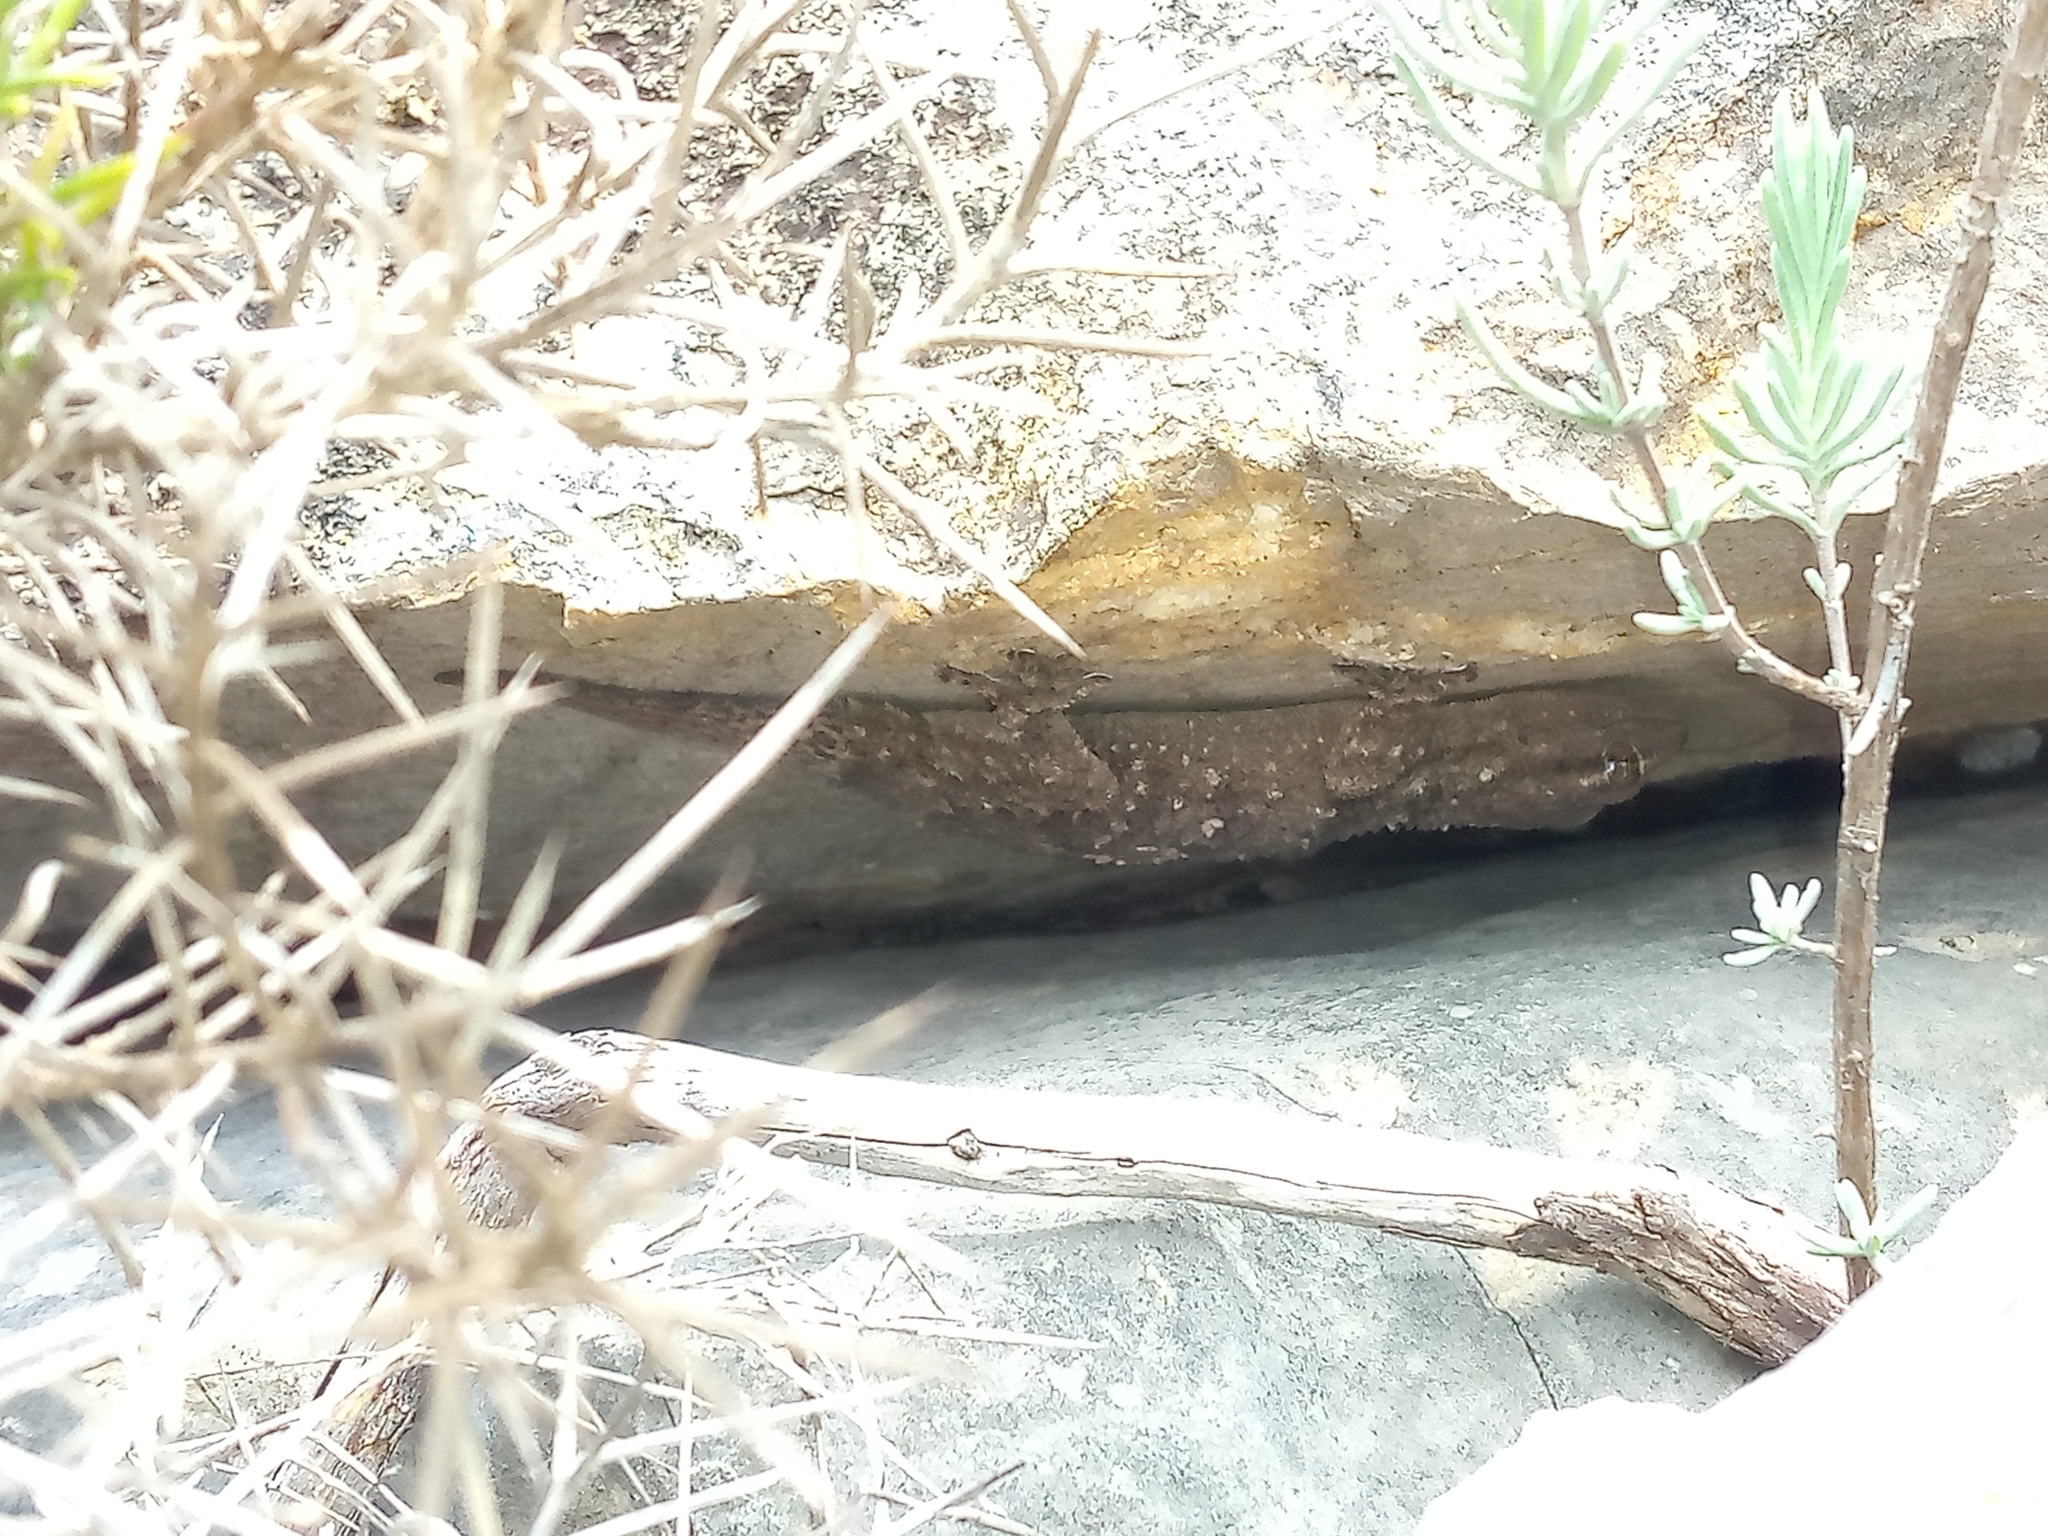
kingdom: Animalia
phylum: Chordata
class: Squamata
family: Phyllodactylidae
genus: Tarentola
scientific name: Tarentola mauritanica
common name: Moorish gecko
